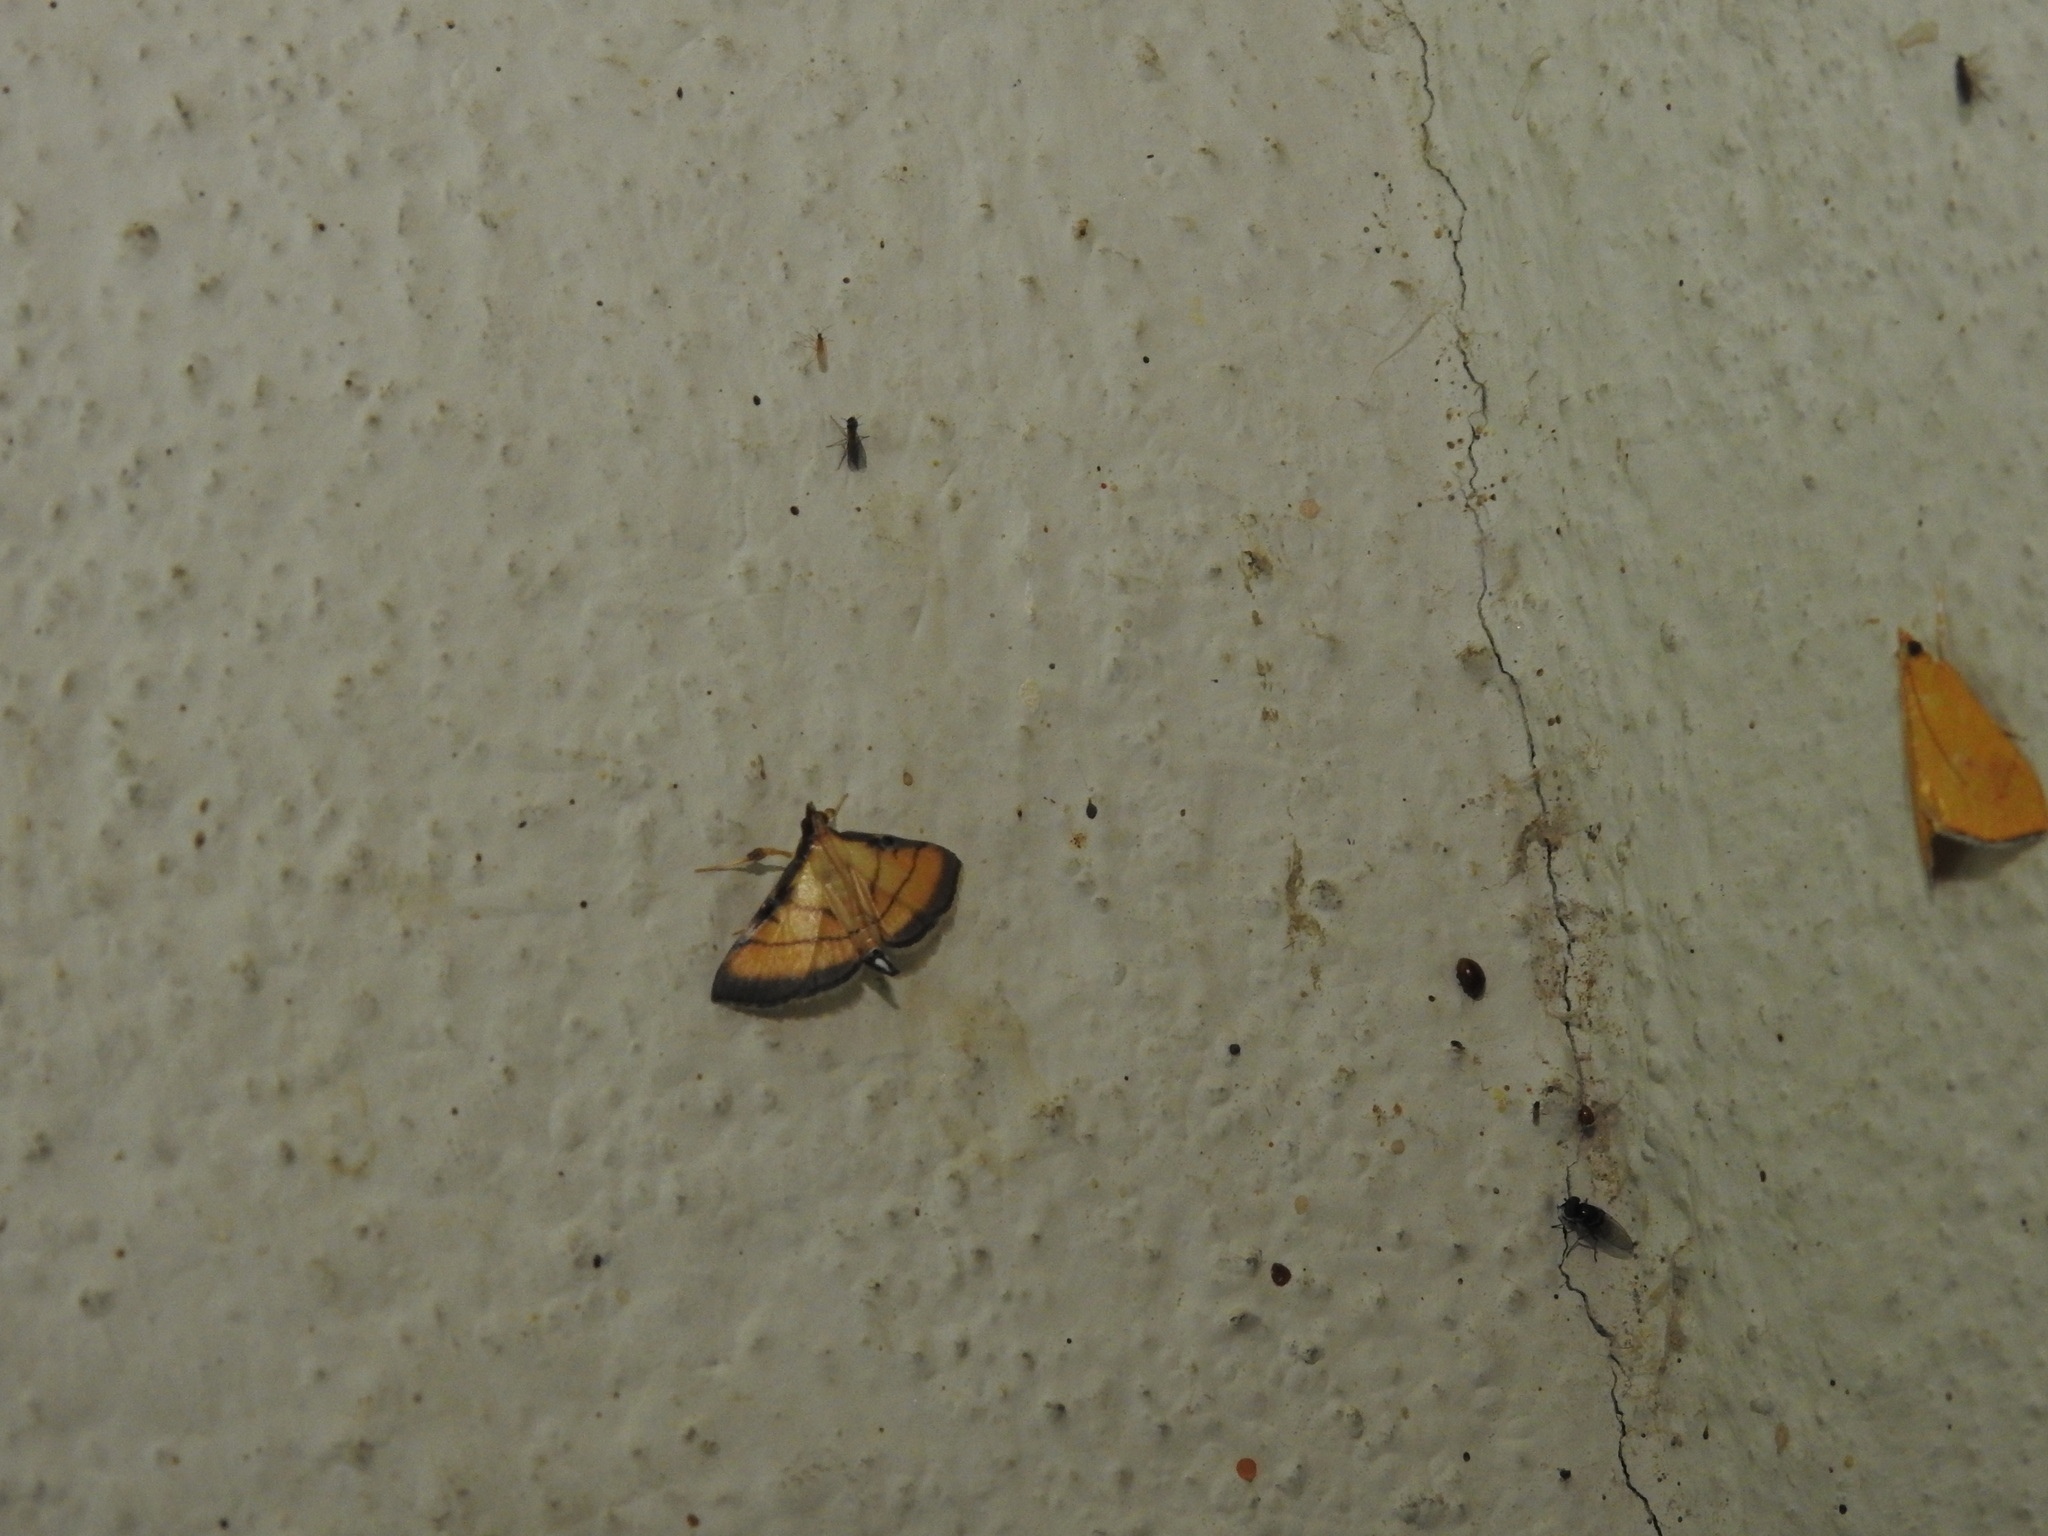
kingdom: Animalia
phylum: Arthropoda
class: Insecta
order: Lepidoptera
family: Crambidae
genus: Cnaphalocrocis
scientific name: Cnaphalocrocis medinalis
